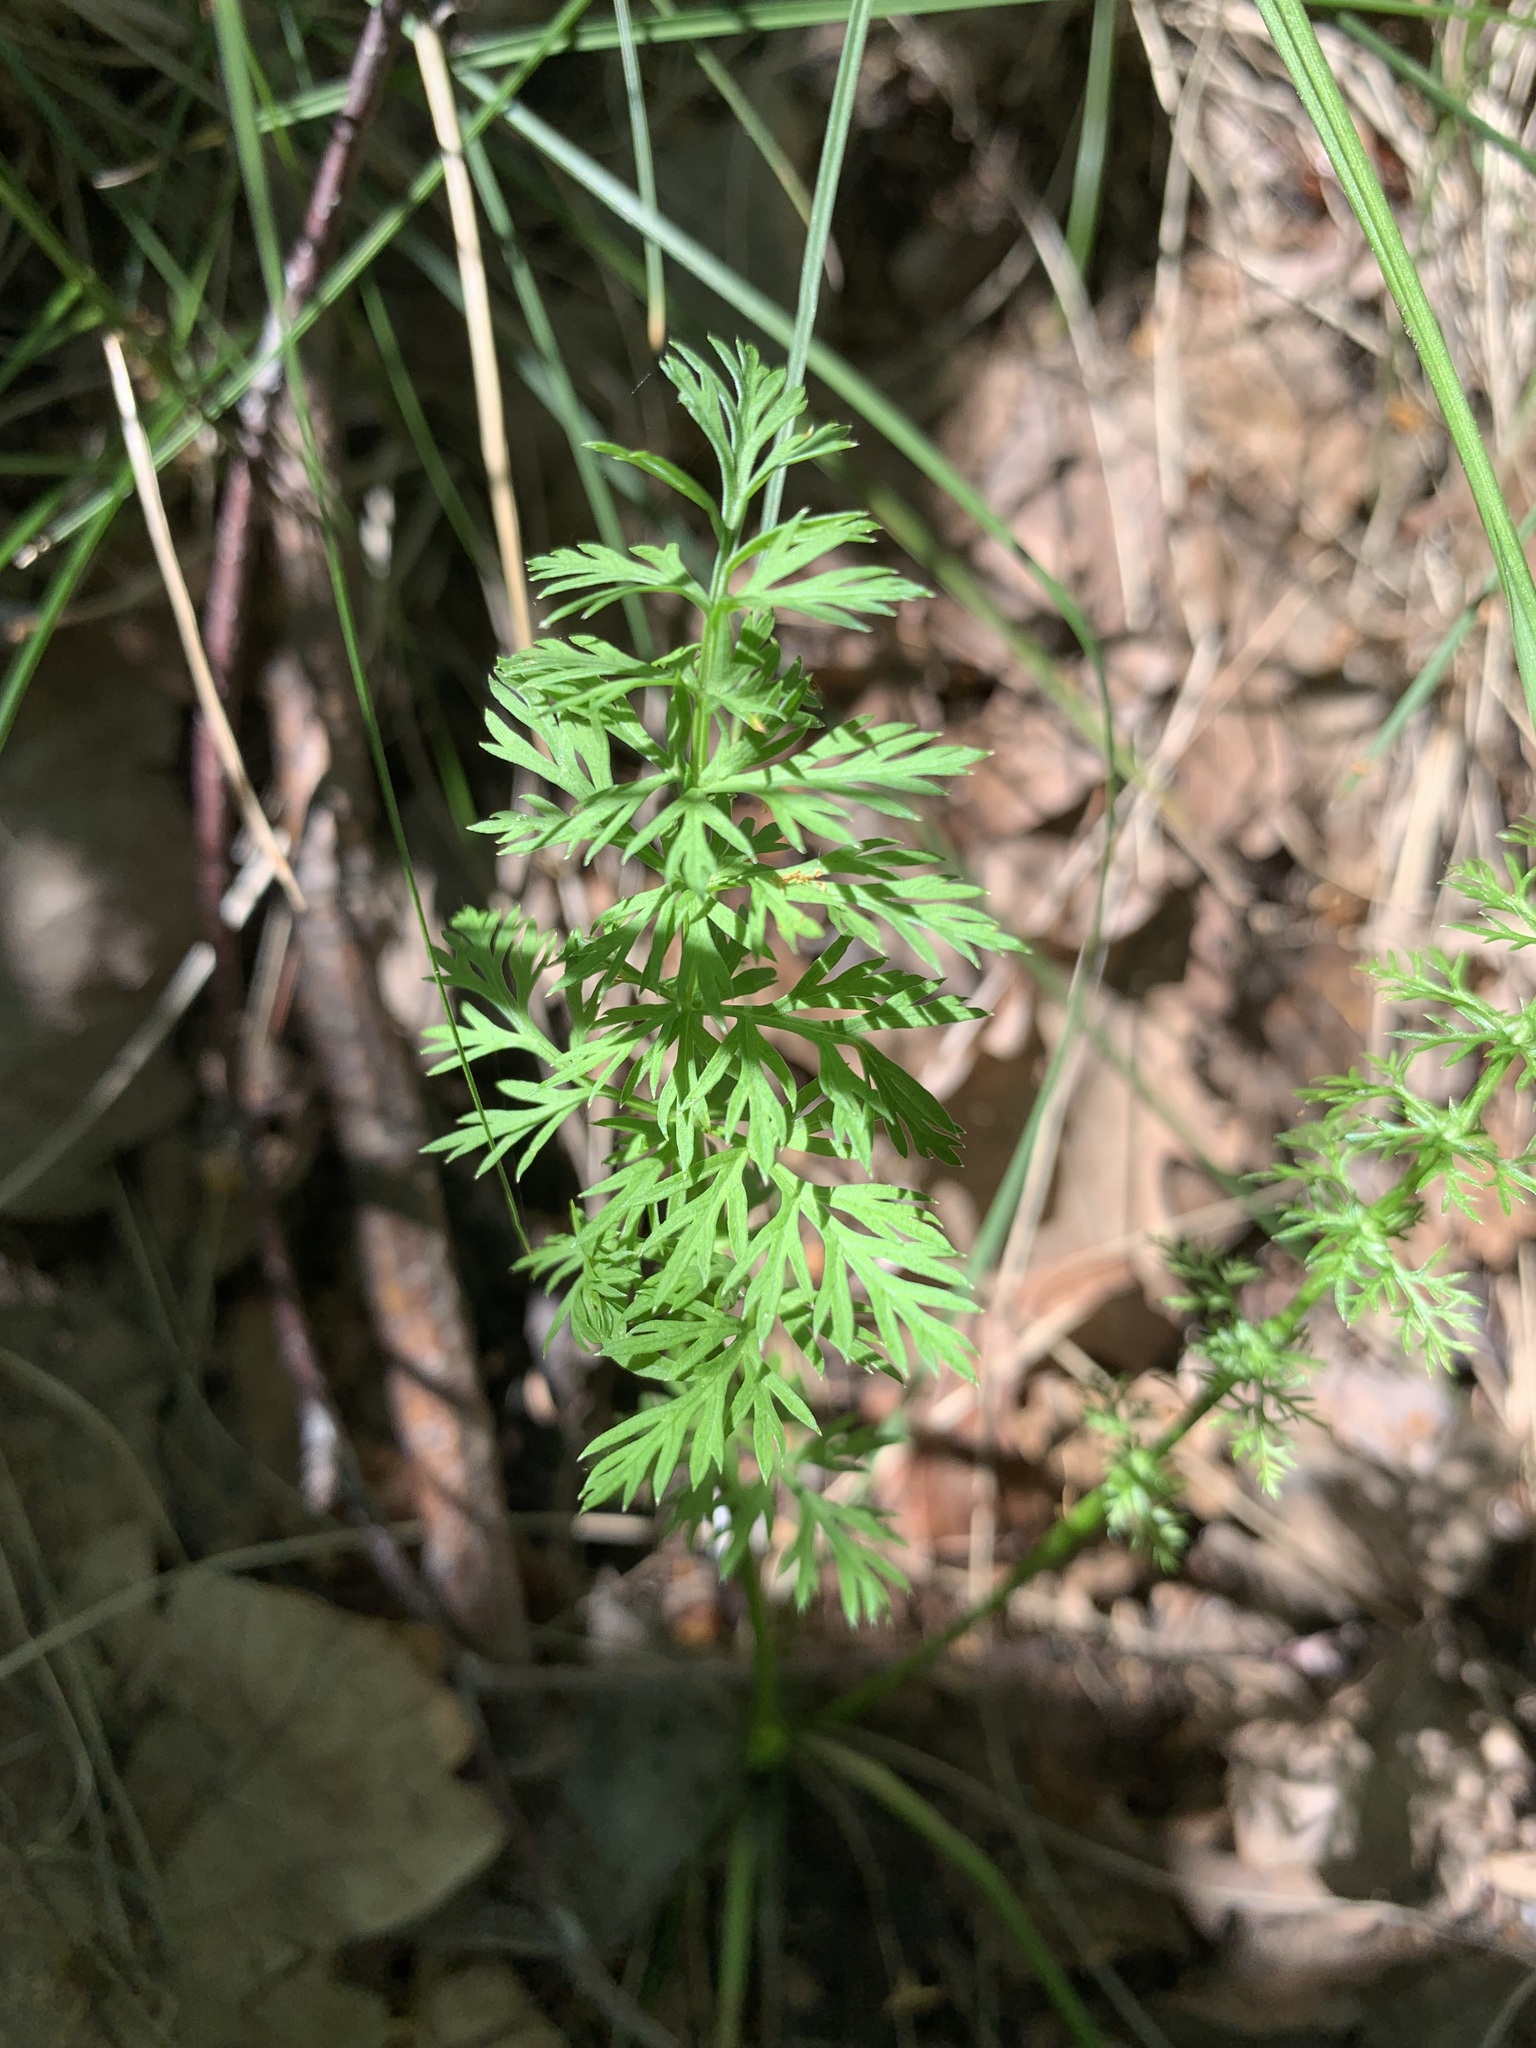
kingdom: Plantae
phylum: Tracheophyta
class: Magnoliopsida
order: Apiales
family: Apiaceae
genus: Carum
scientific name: Carum carvi
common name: Caraway
